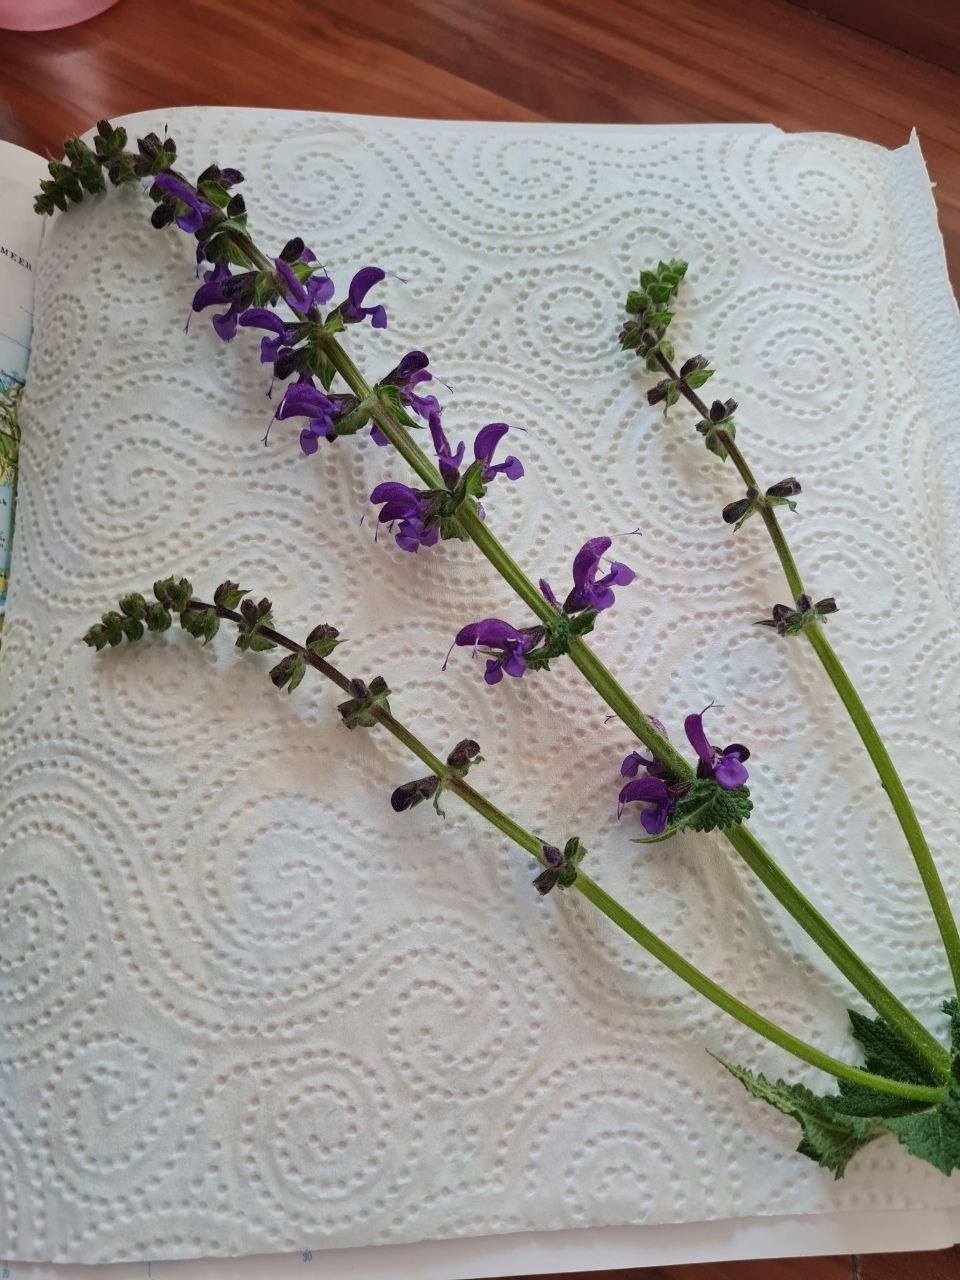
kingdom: Plantae
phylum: Tracheophyta
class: Magnoliopsida
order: Lamiales
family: Lamiaceae
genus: Salvia
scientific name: Salvia pratensis
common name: Meadow sage
